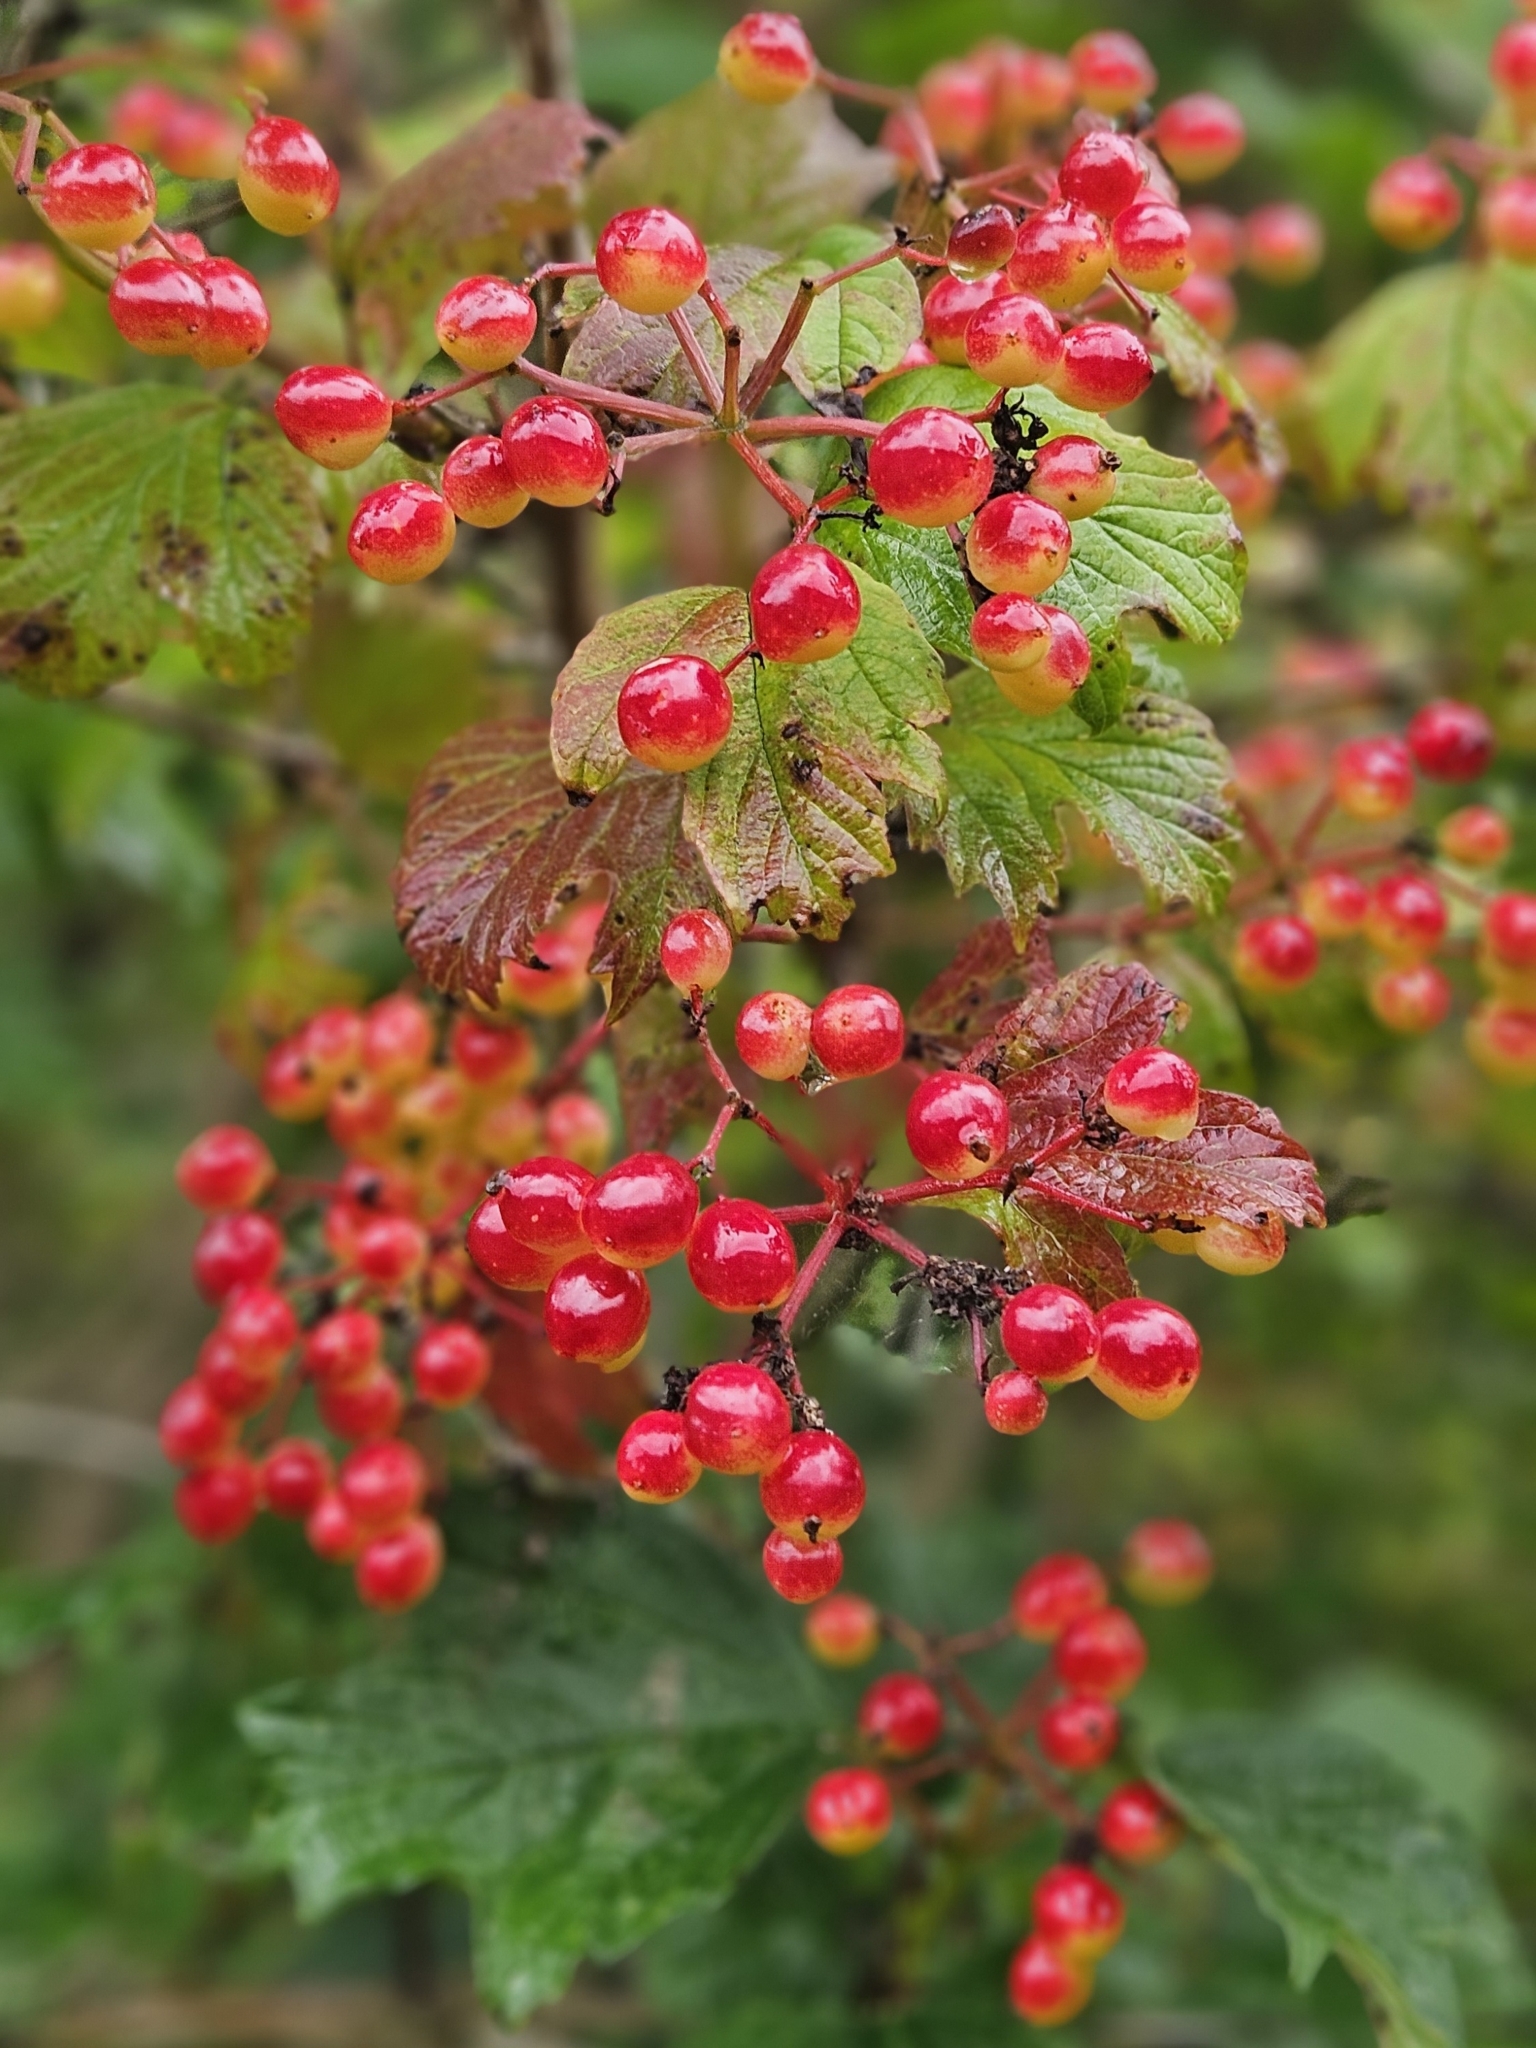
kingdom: Plantae
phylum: Tracheophyta
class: Magnoliopsida
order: Dipsacales
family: Viburnaceae
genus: Viburnum
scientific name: Viburnum opulus
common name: Guelder-rose
